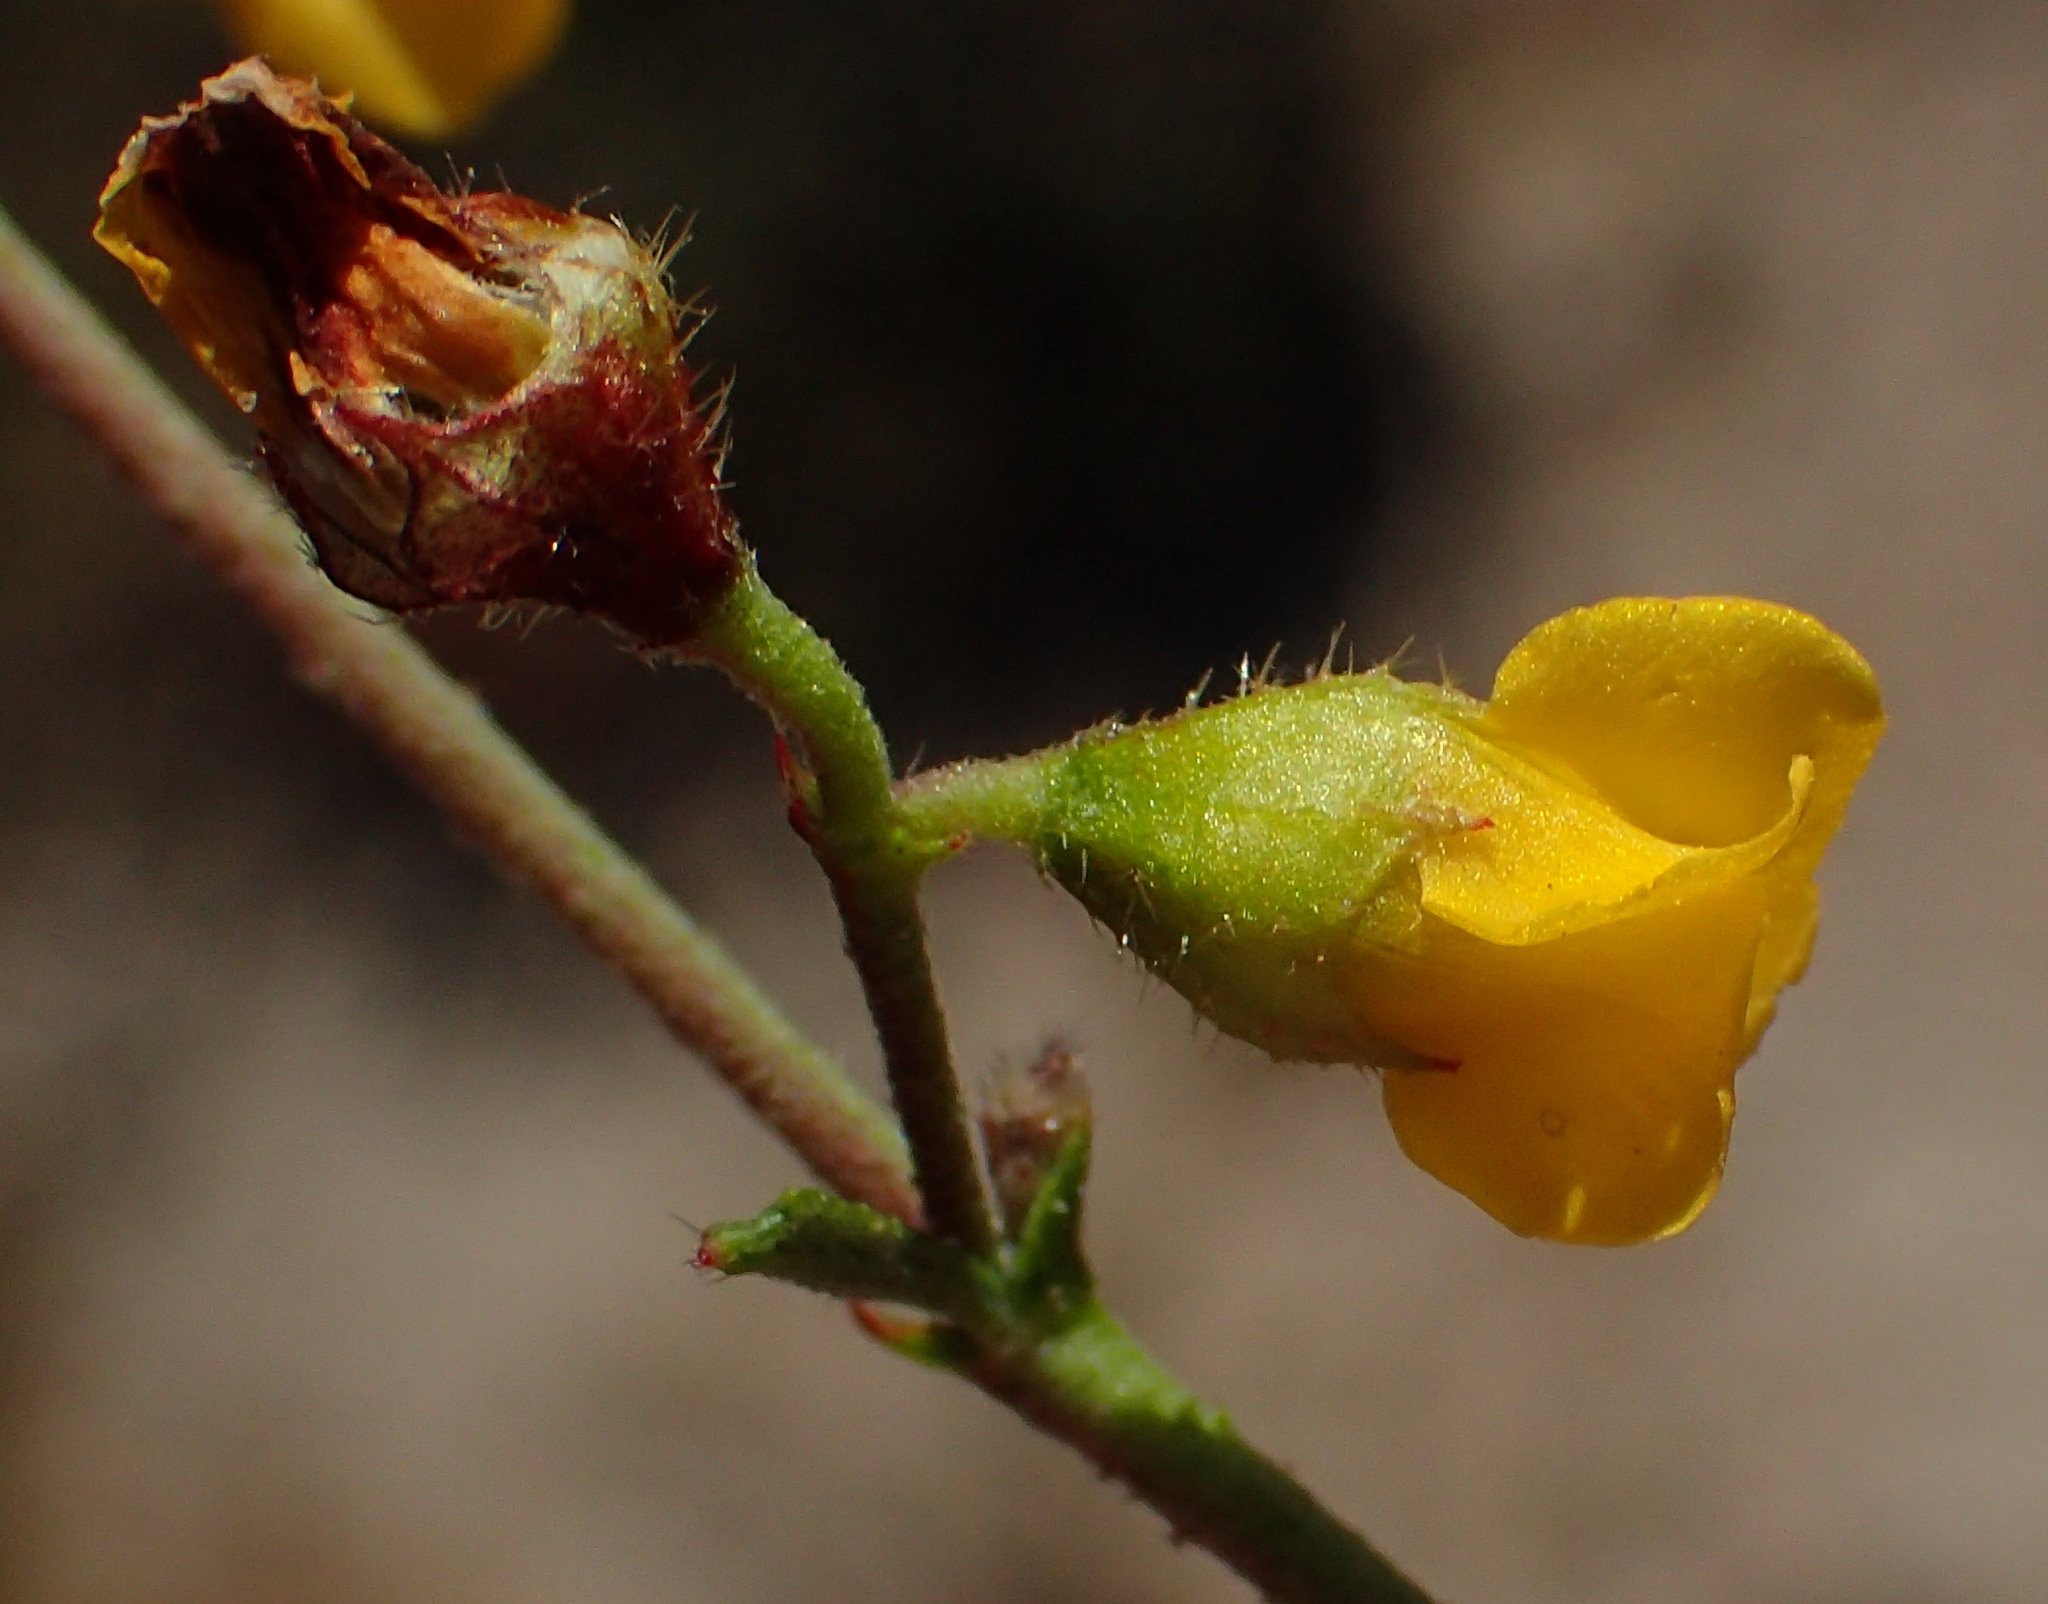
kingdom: Plantae
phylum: Tracheophyta
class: Magnoliopsida
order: Malvales
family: Malvaceae
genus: Hermannia
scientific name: Hermannia alnifolia
